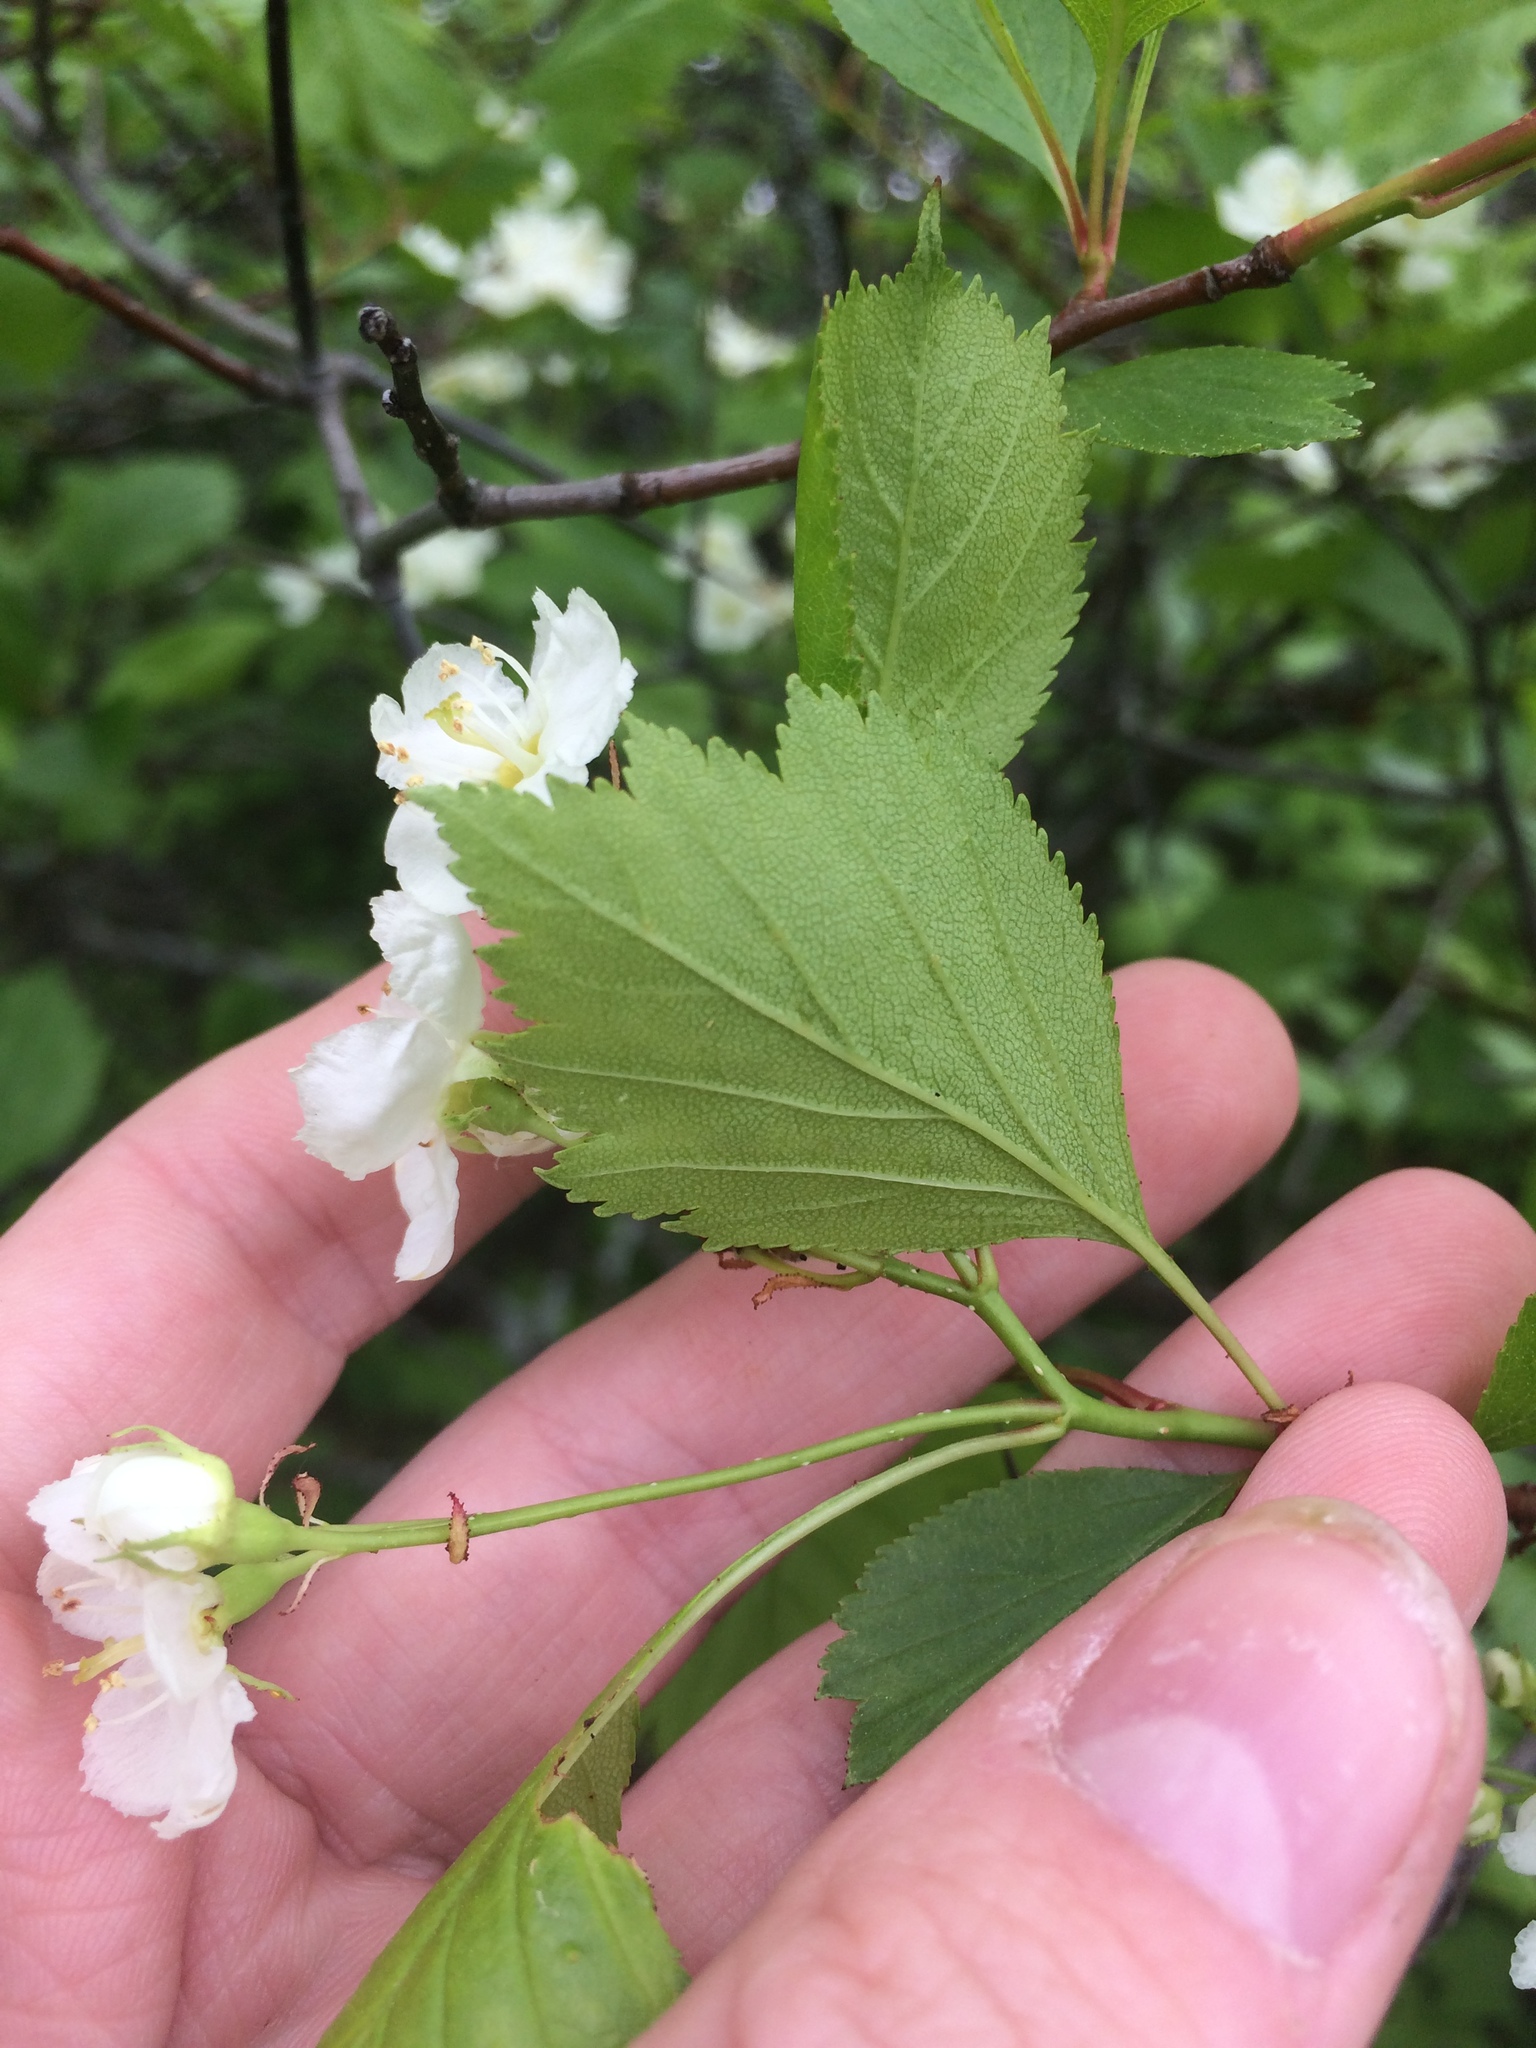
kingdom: Plantae
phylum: Tracheophyta
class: Magnoliopsida
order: Rosales
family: Rosaceae
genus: Crataegus
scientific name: Crataegus chrysocarpa
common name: Fire-berry hawthorn
